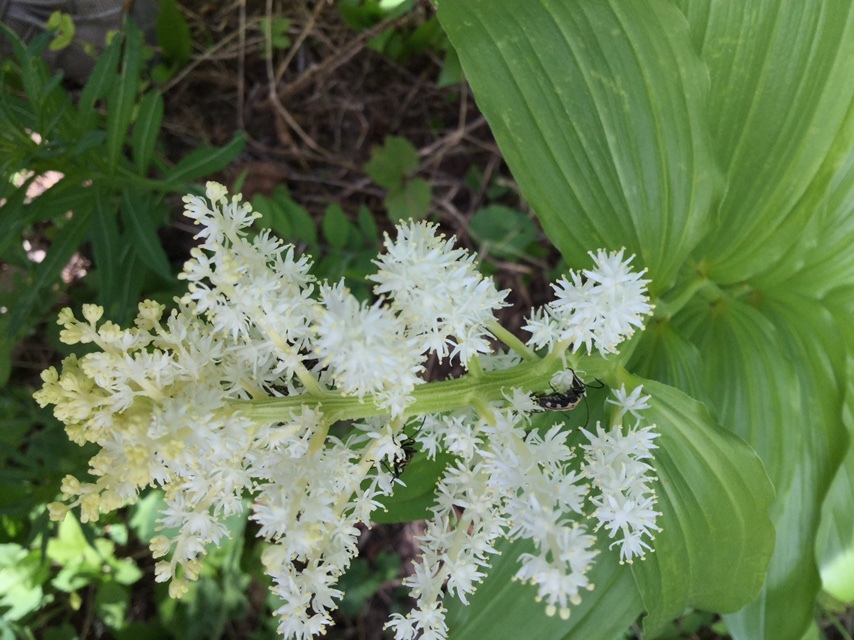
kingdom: Plantae
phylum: Tracheophyta
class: Liliopsida
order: Asparagales
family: Asparagaceae
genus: Maianthemum
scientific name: Maianthemum racemosum
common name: False spikenard
